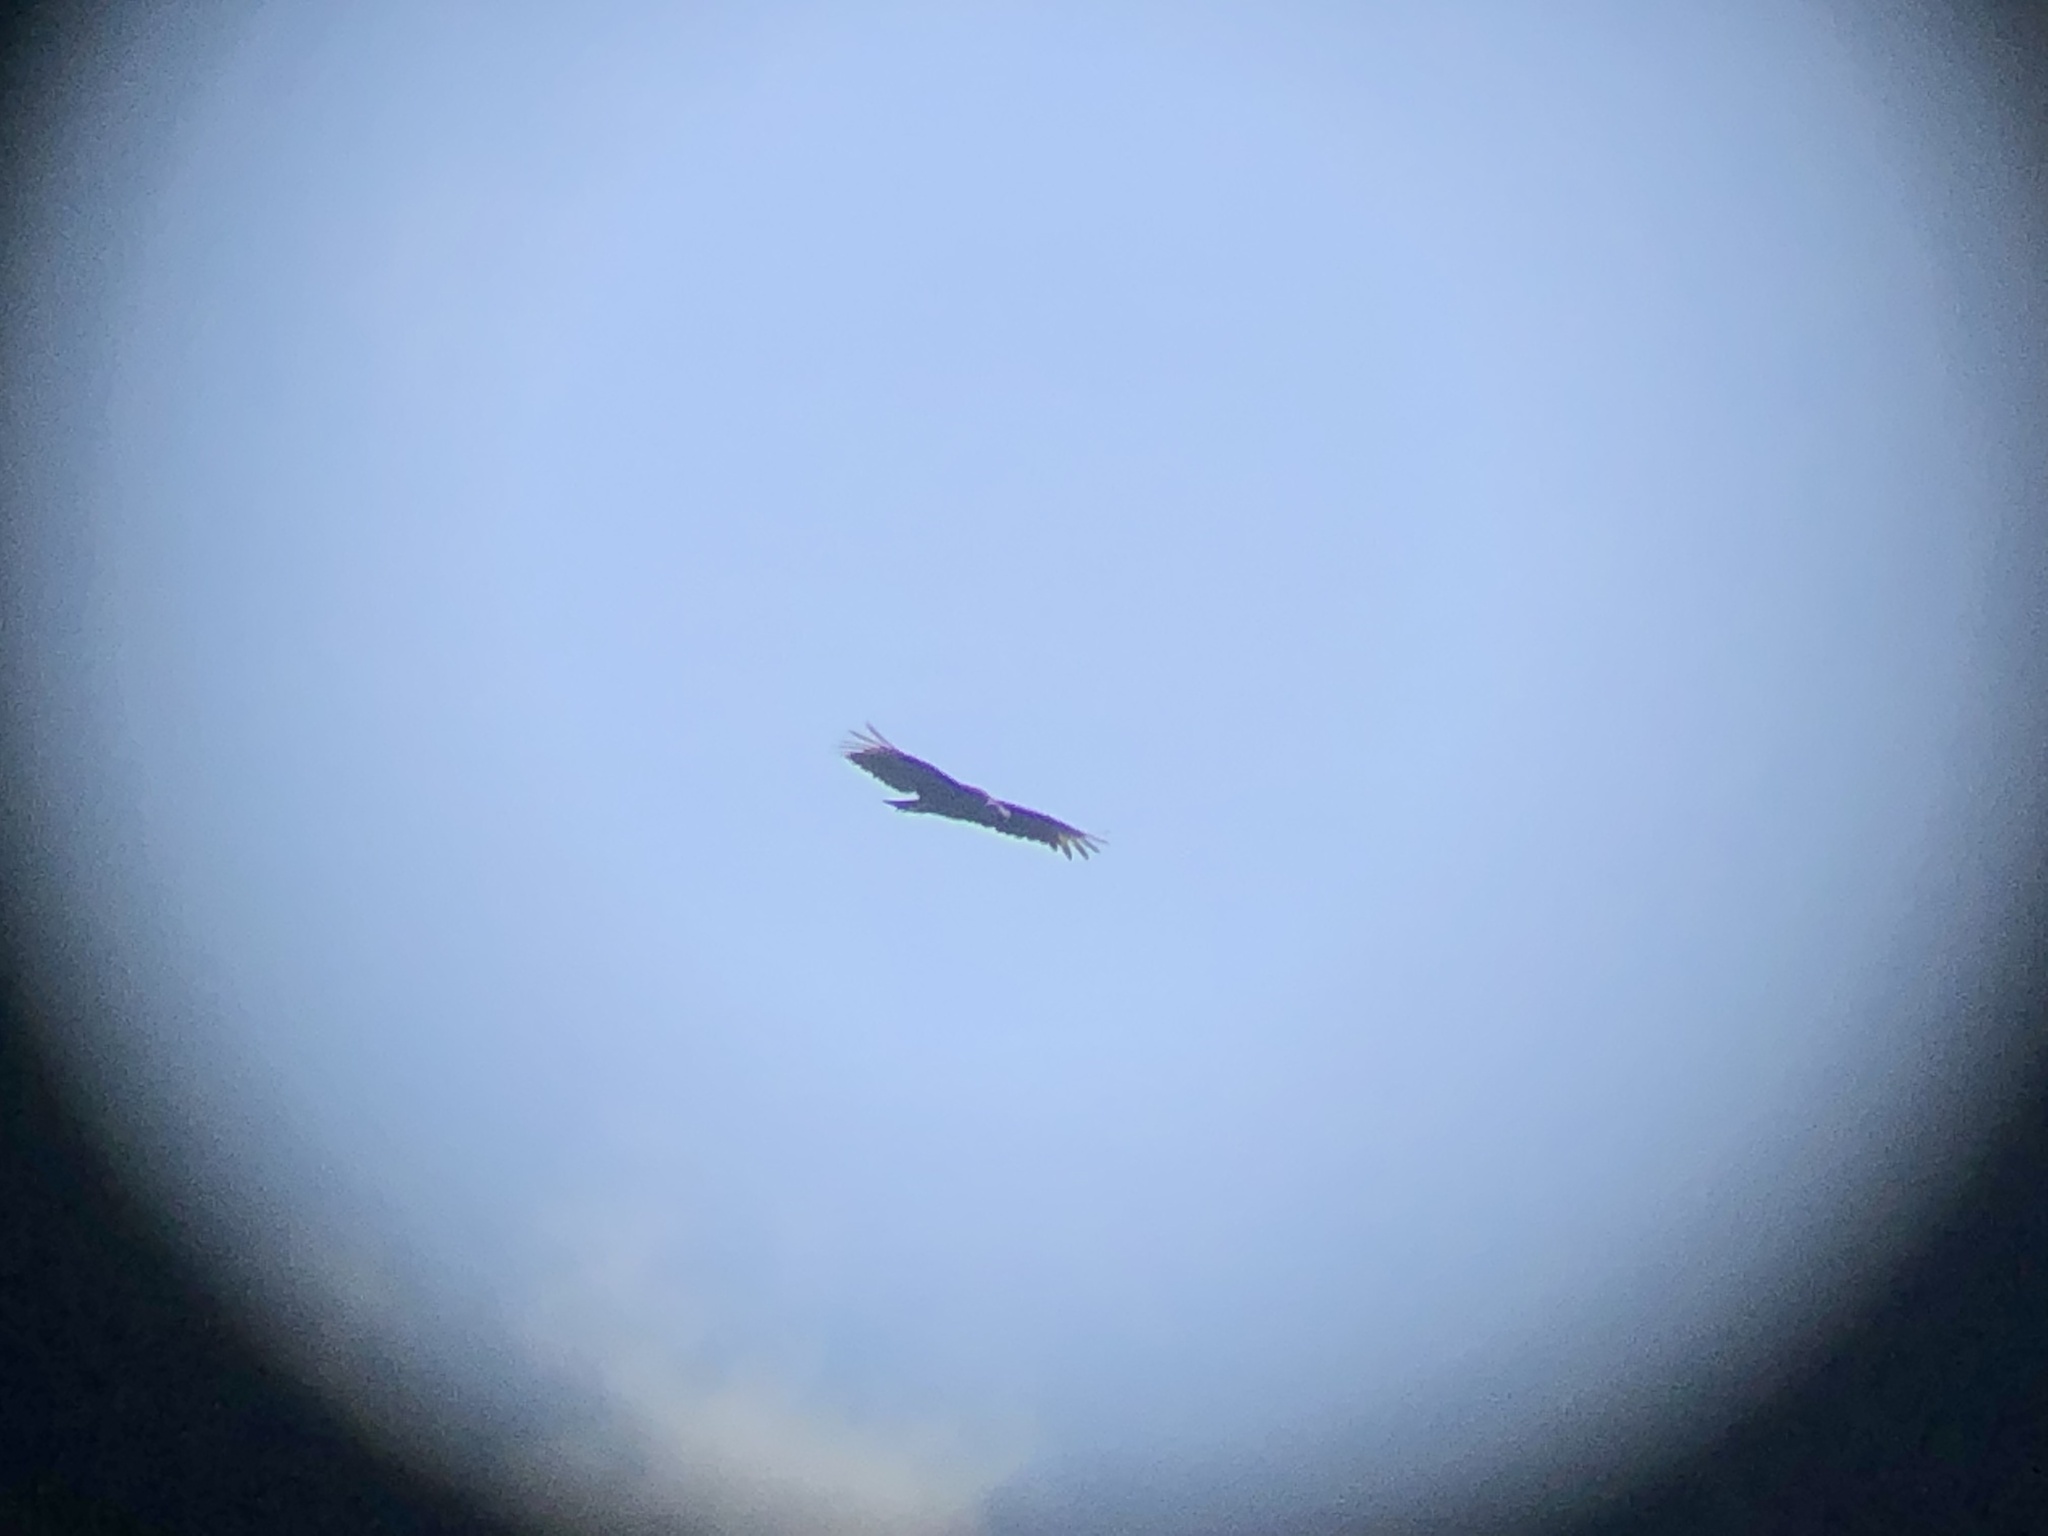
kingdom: Animalia
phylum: Chordata
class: Aves
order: Accipitriformes
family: Cathartidae
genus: Coragyps
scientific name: Coragyps atratus
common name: Black vulture
